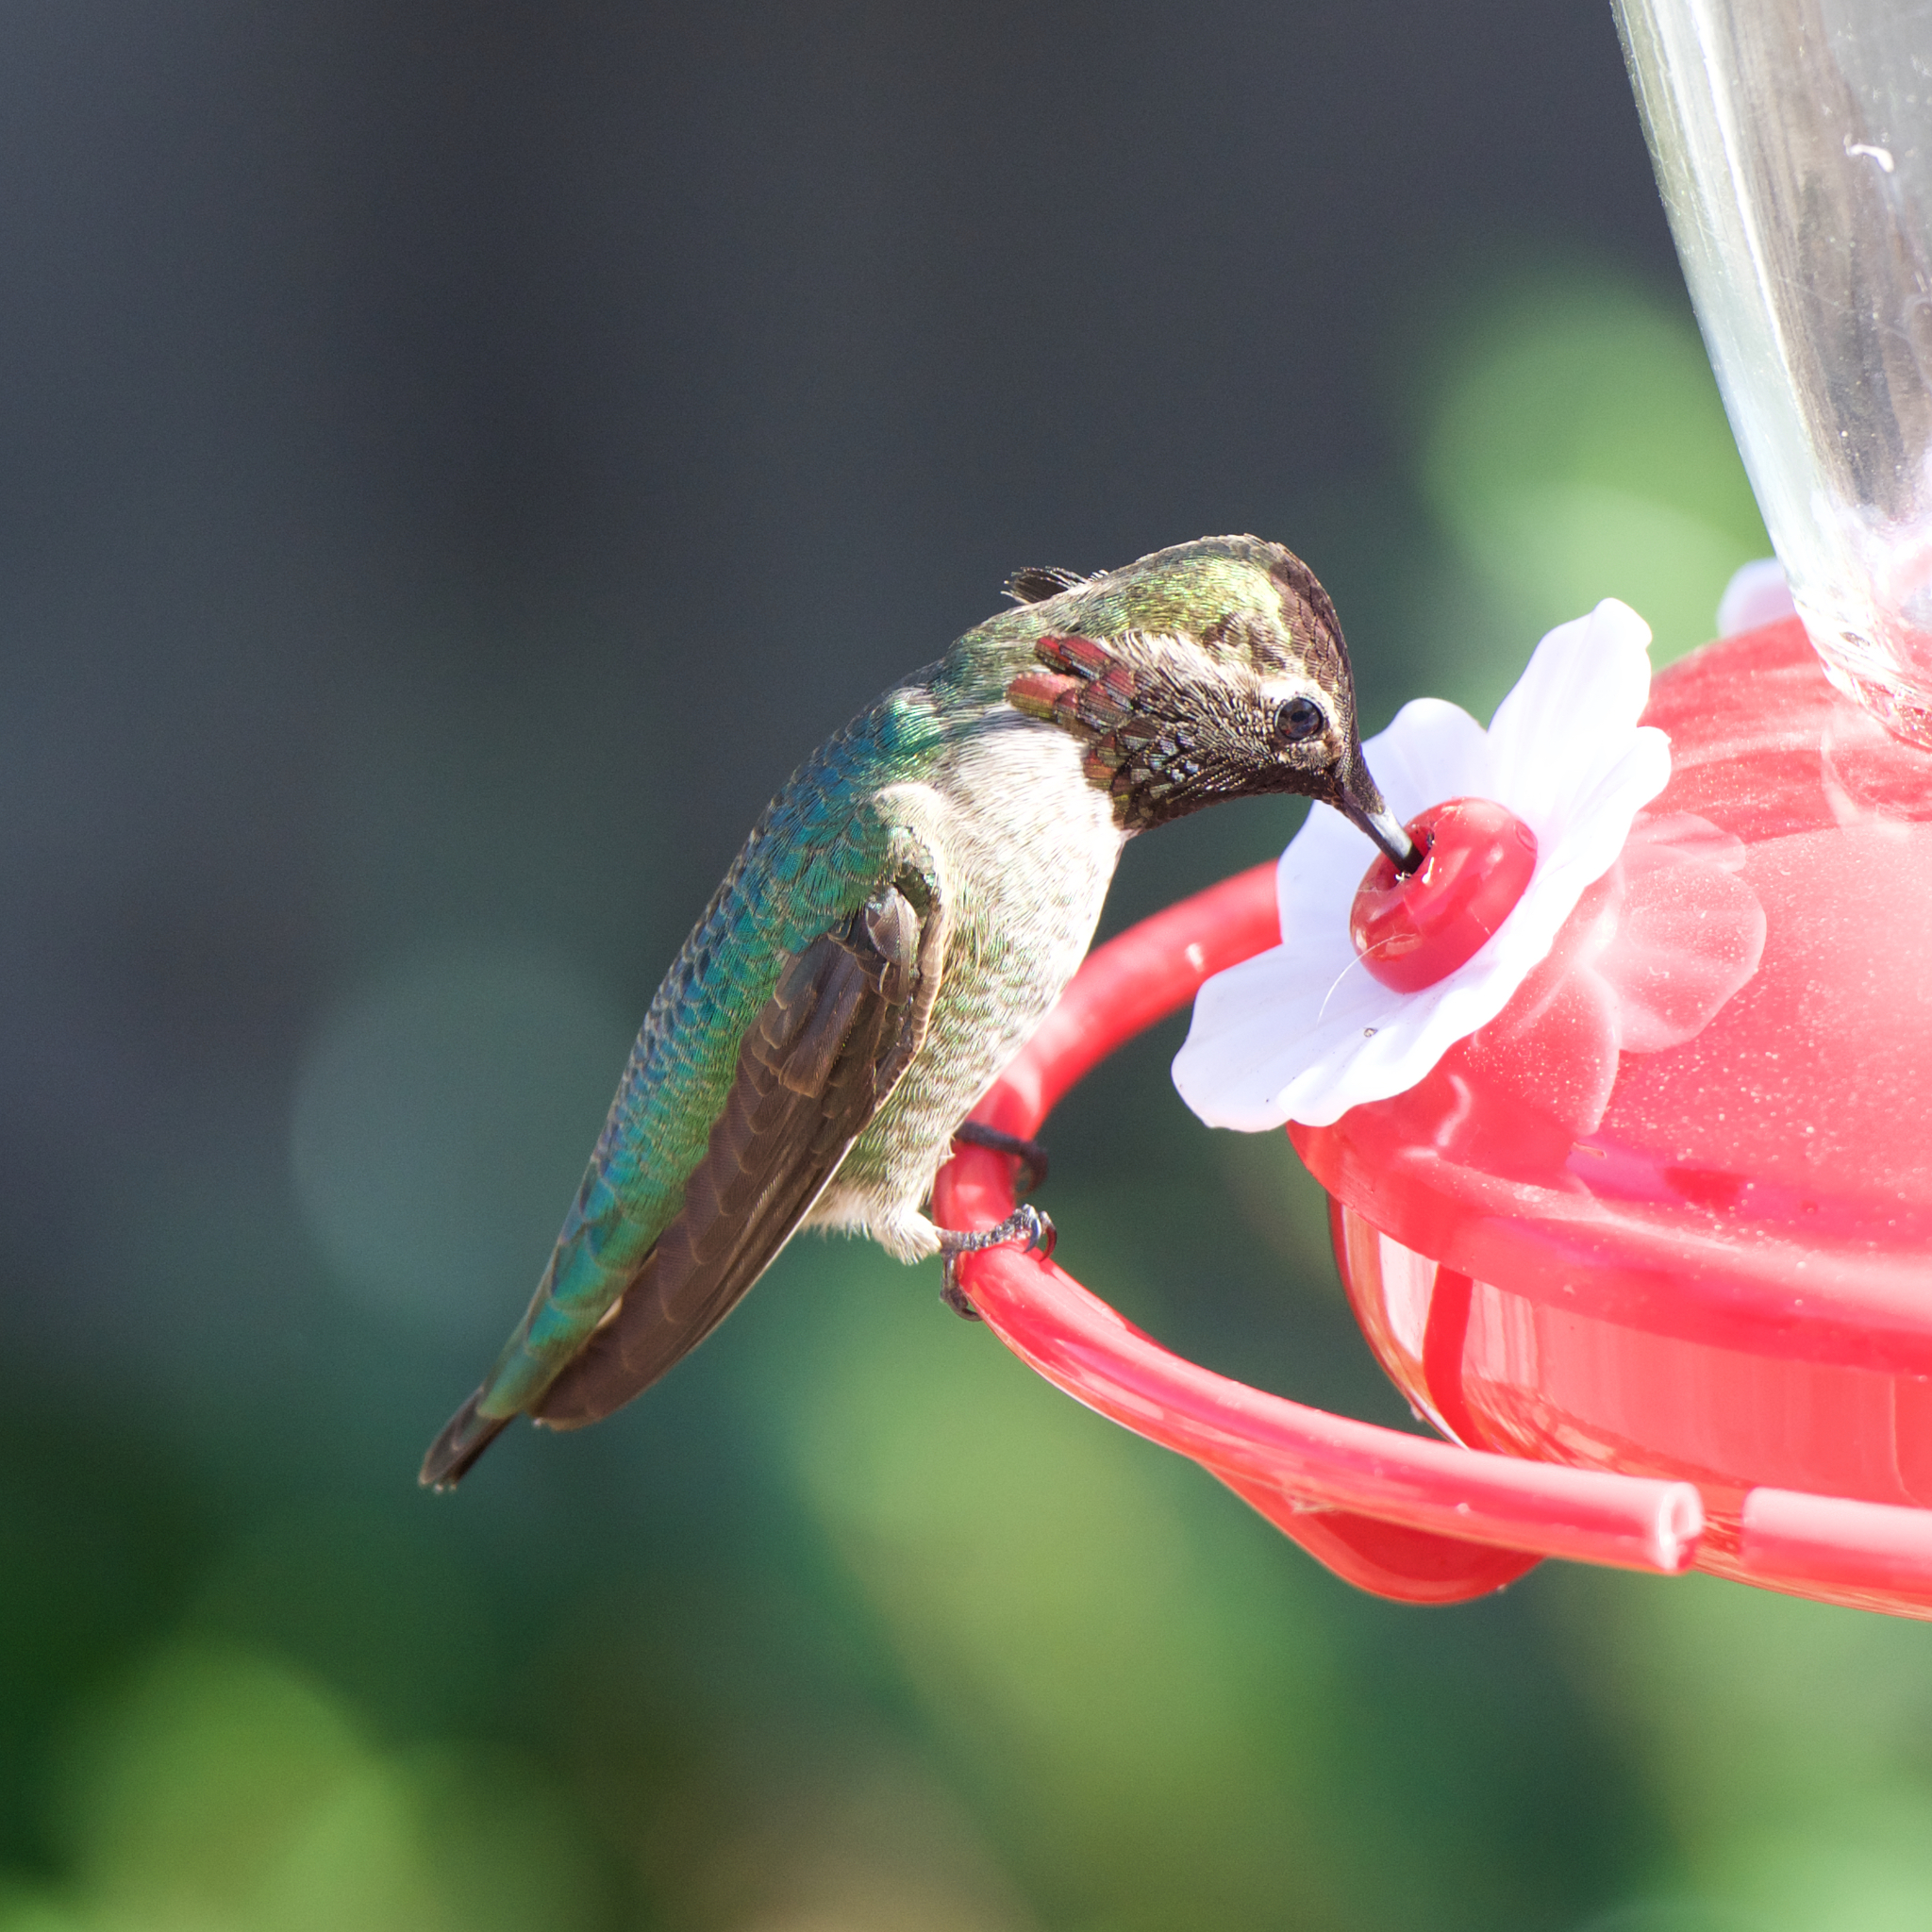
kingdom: Animalia
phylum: Chordata
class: Aves
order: Apodiformes
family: Trochilidae
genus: Calypte
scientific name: Calypte anna
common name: Anna's hummingbird
